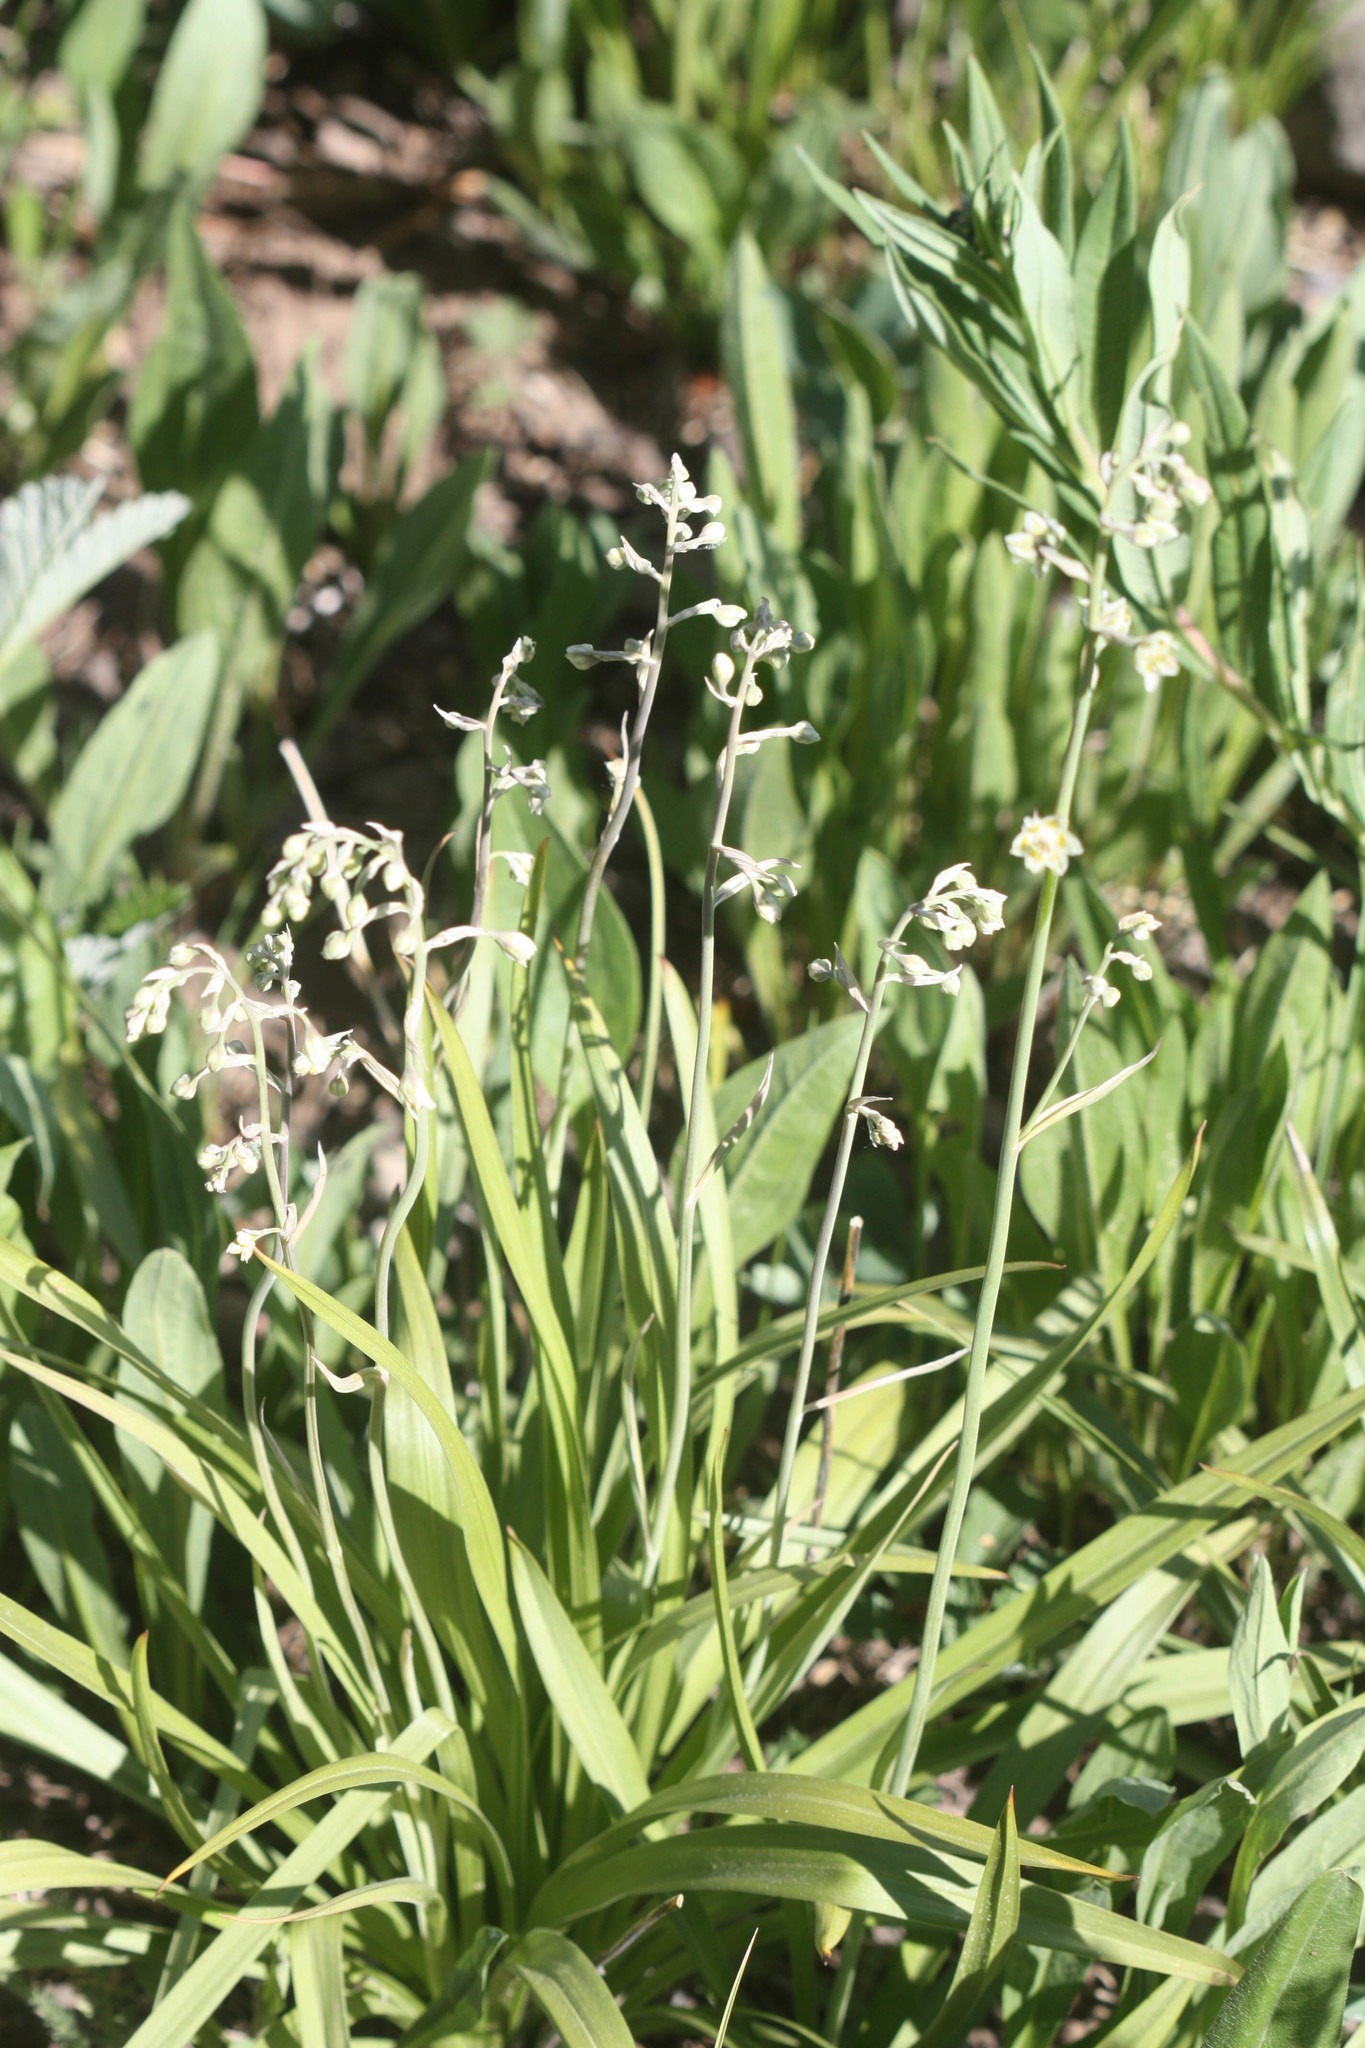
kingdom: Plantae
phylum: Tracheophyta
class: Liliopsida
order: Liliales
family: Melanthiaceae
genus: Anticlea
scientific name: Anticlea elegans
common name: Mountain death camas
